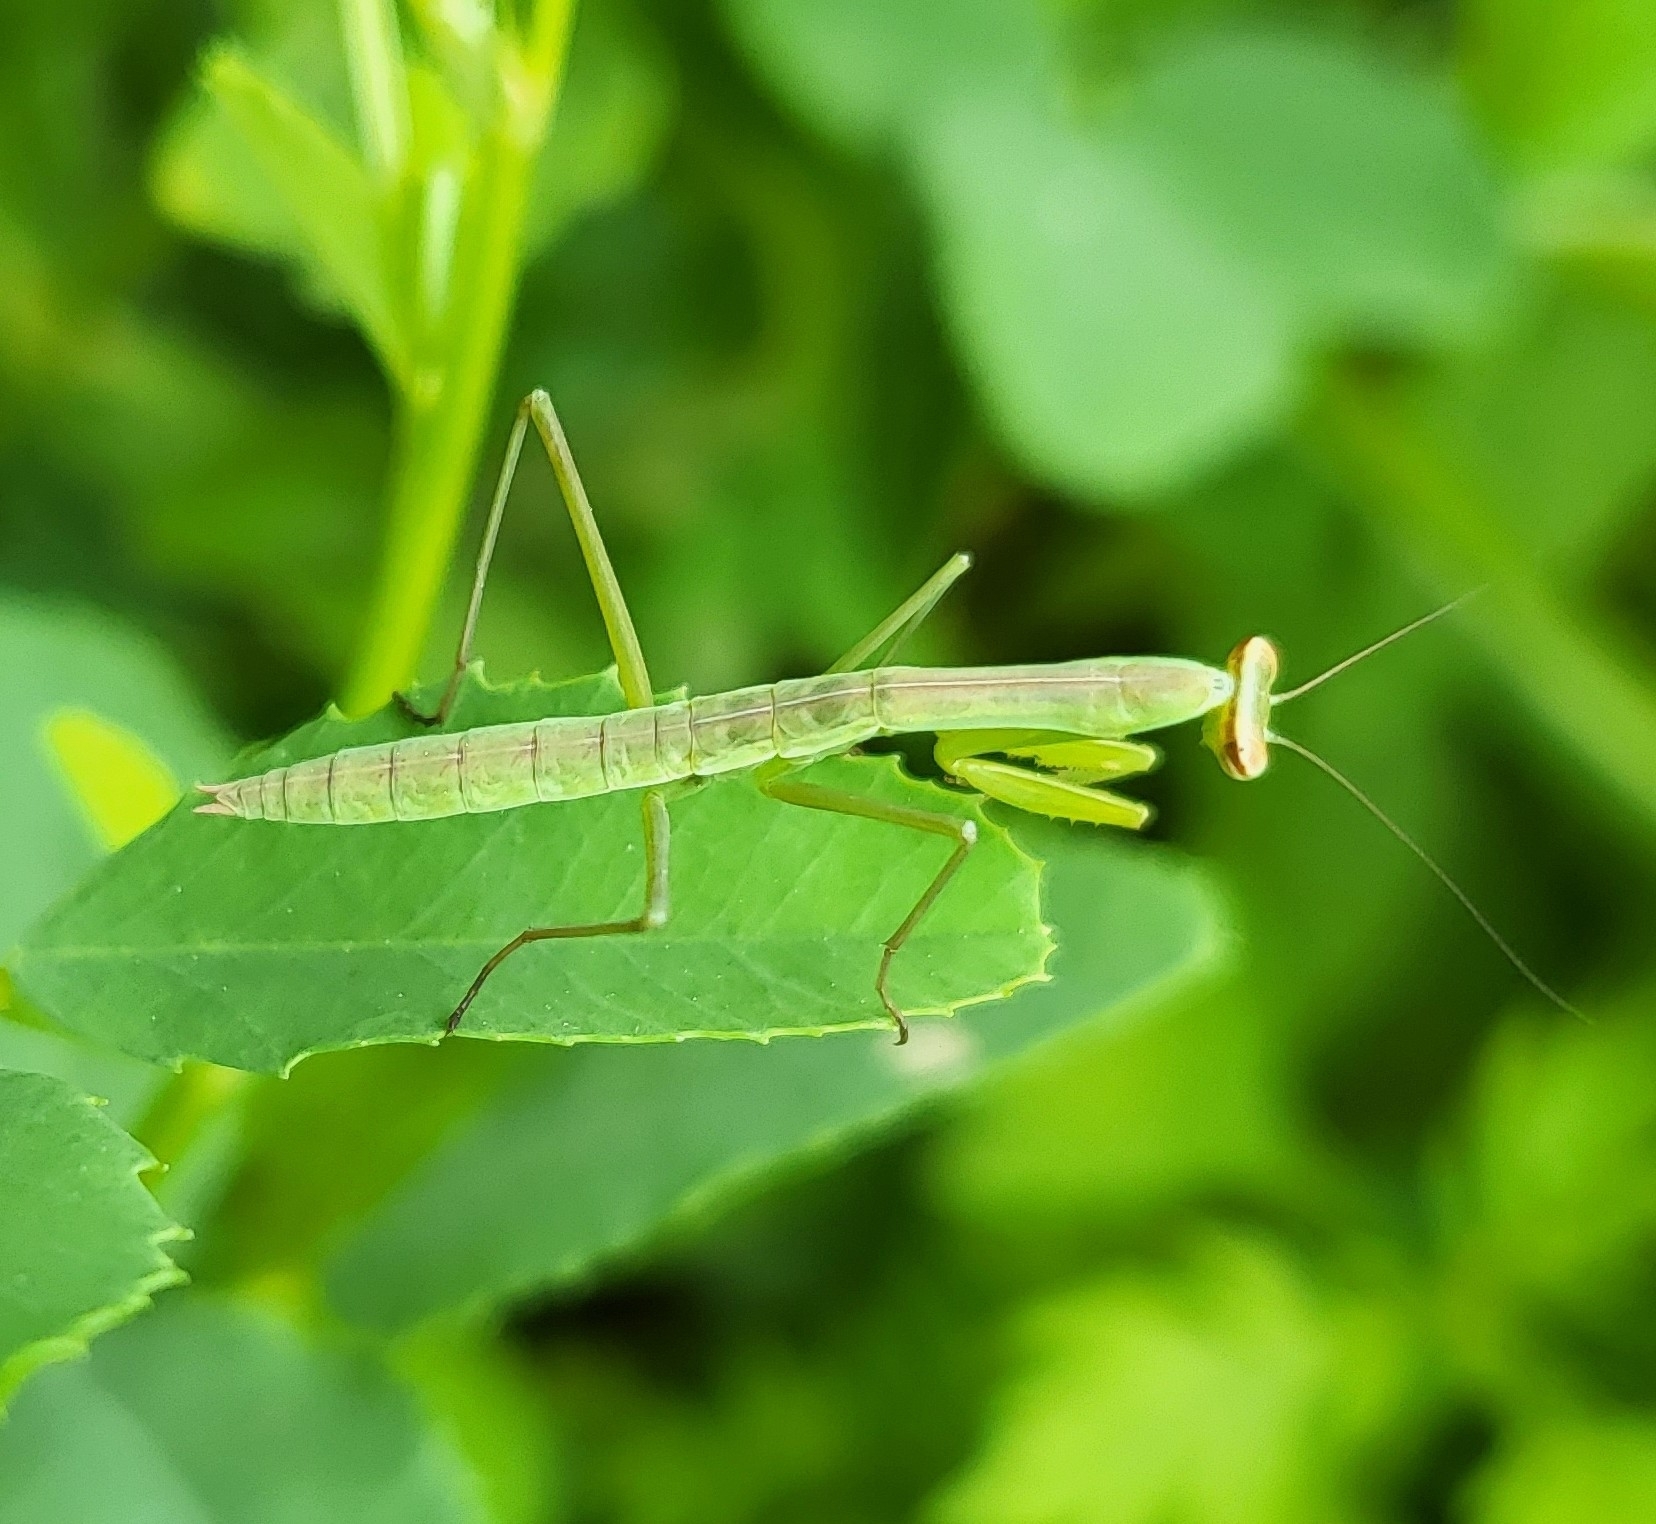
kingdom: Animalia
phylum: Arthropoda
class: Insecta
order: Mantodea
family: Mantidae
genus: Tenodera
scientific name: Tenodera sinensis
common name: Chinese mantis
